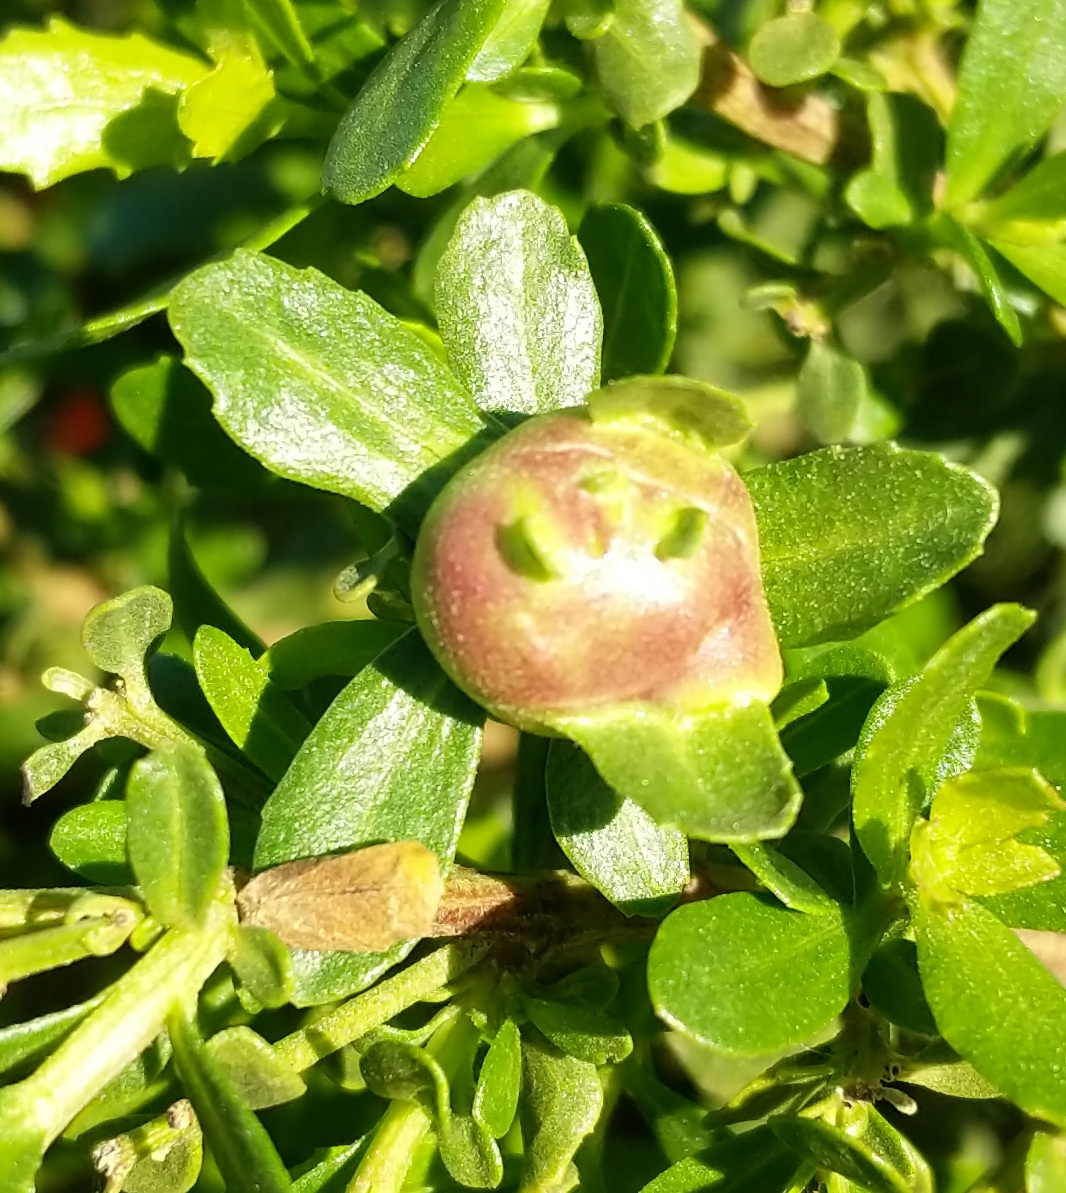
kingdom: Animalia
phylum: Arthropoda
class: Insecta
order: Diptera
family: Cecidomyiidae
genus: Rhopalomyia
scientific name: Rhopalomyia californica
